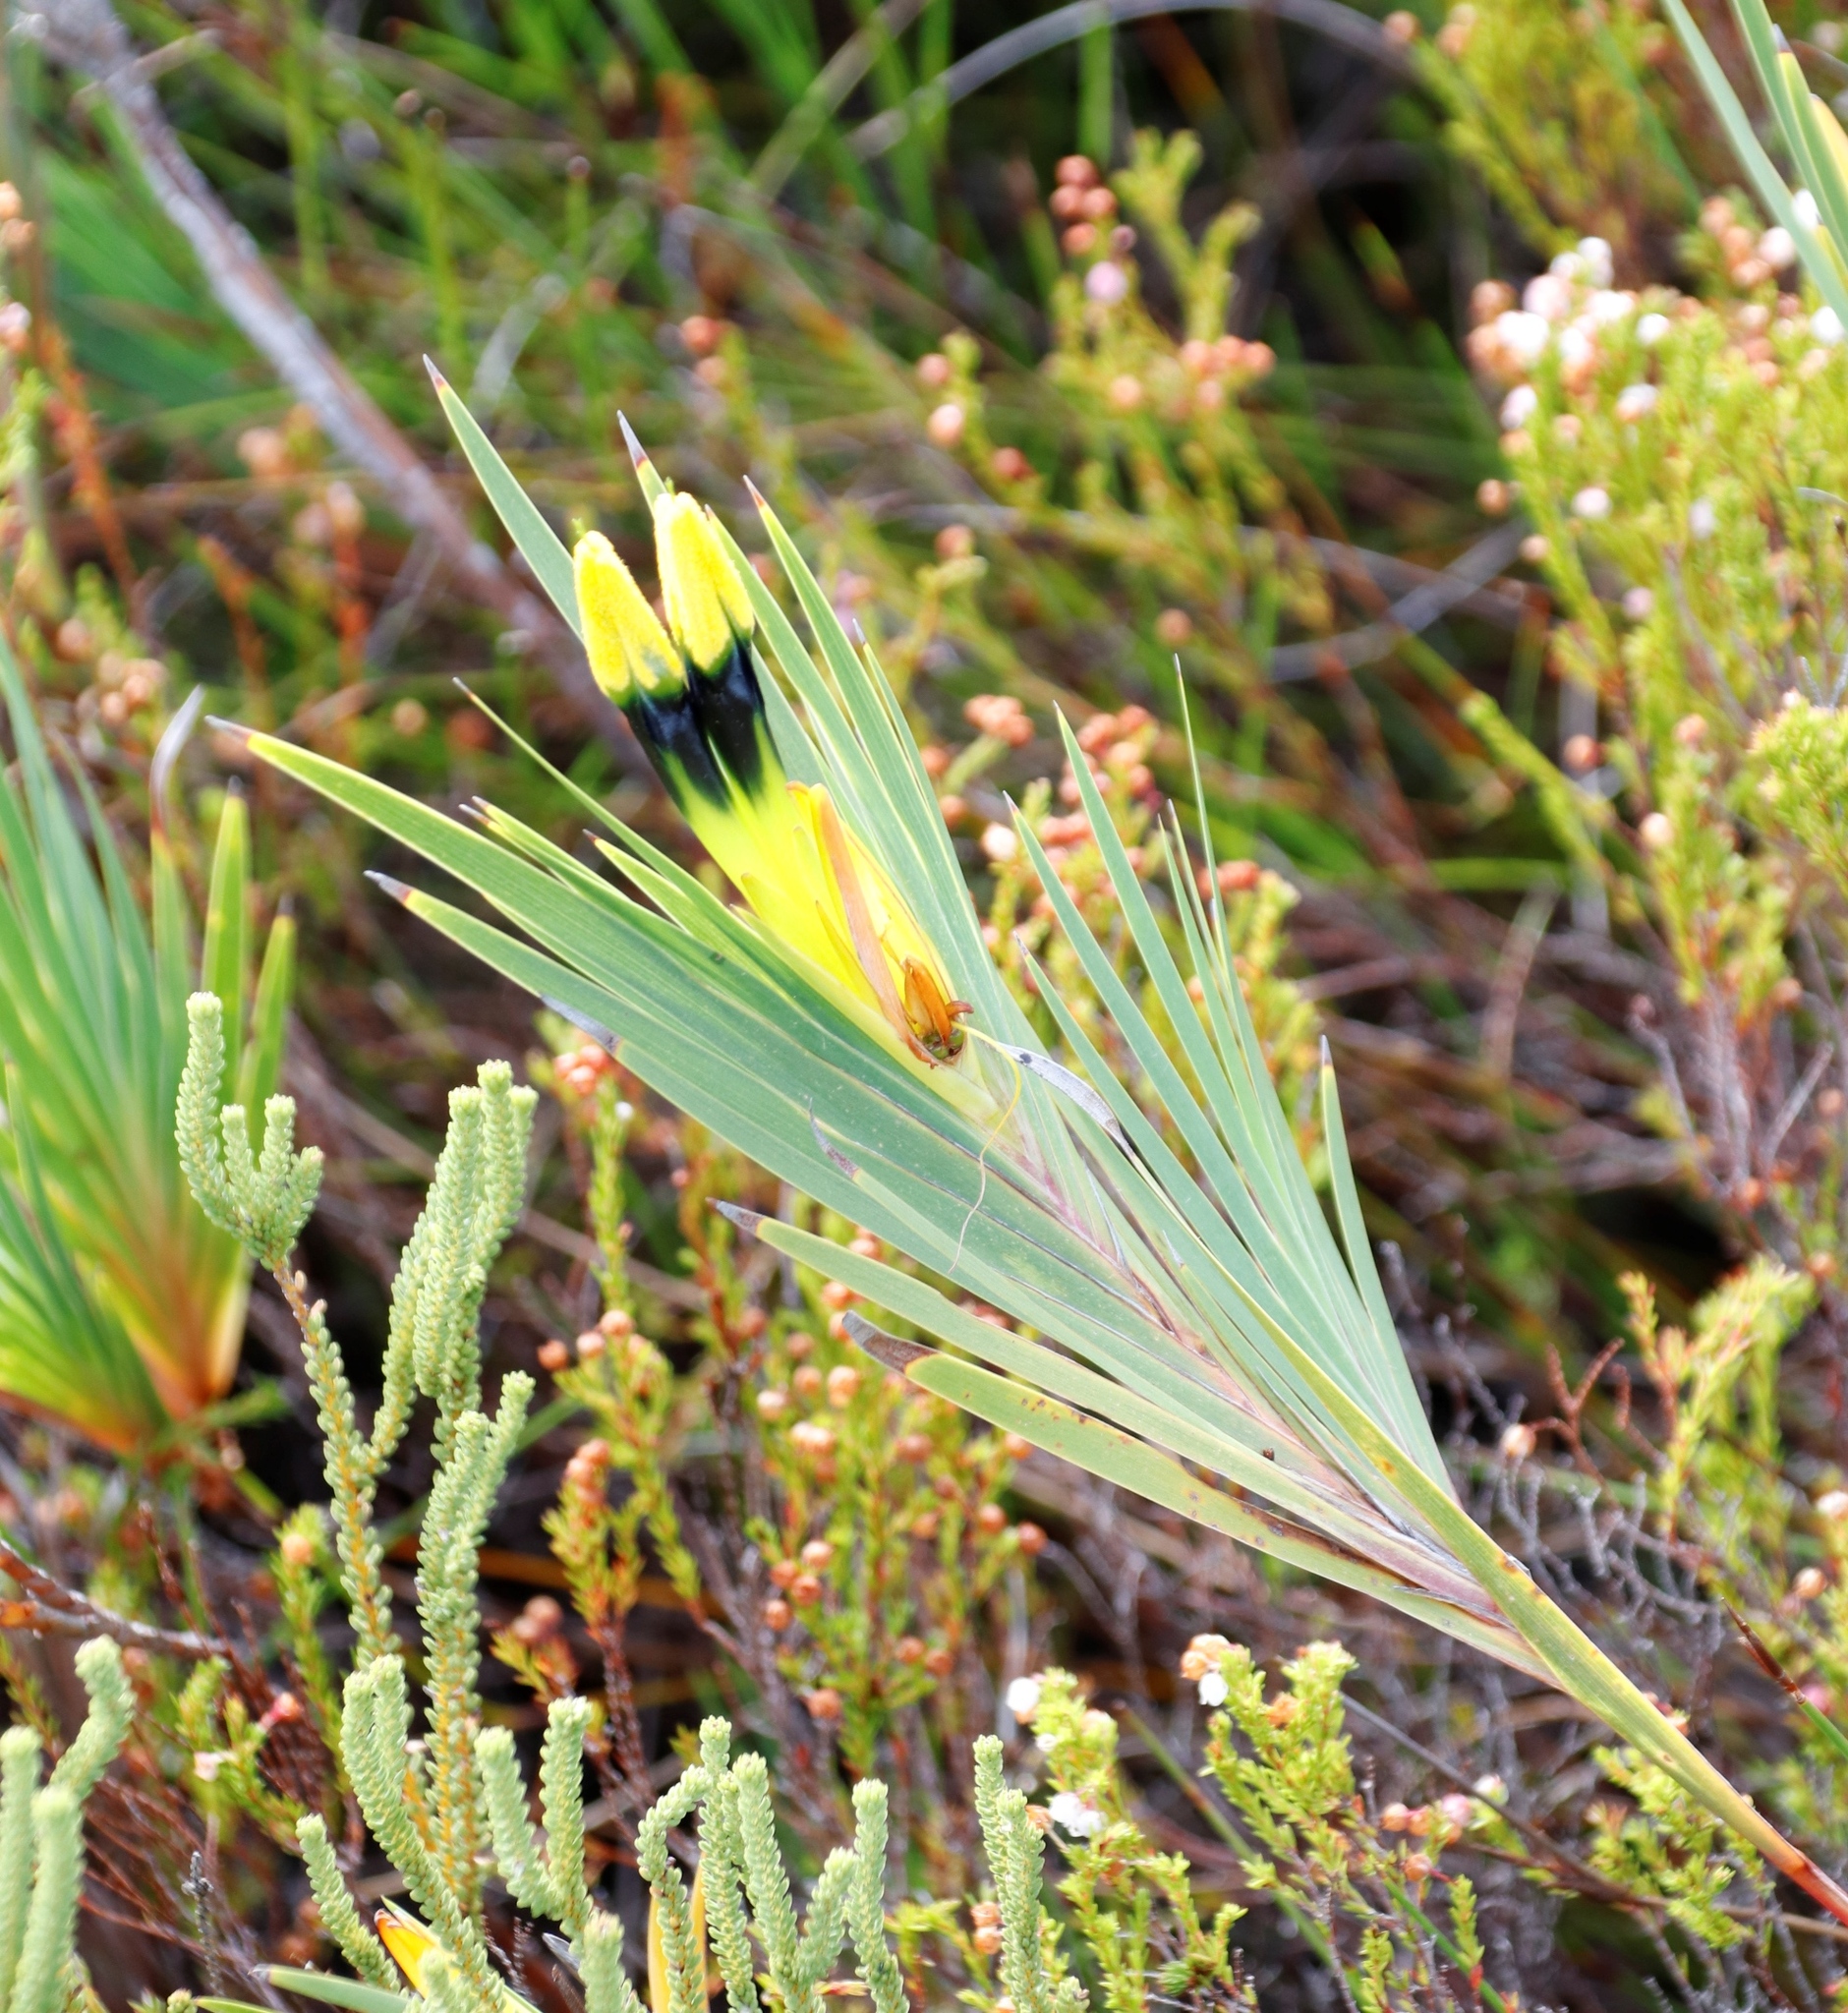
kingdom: Plantae
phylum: Tracheophyta
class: Liliopsida
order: Asparagales
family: Iridaceae
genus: Witsenia
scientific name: Witsenia maura
